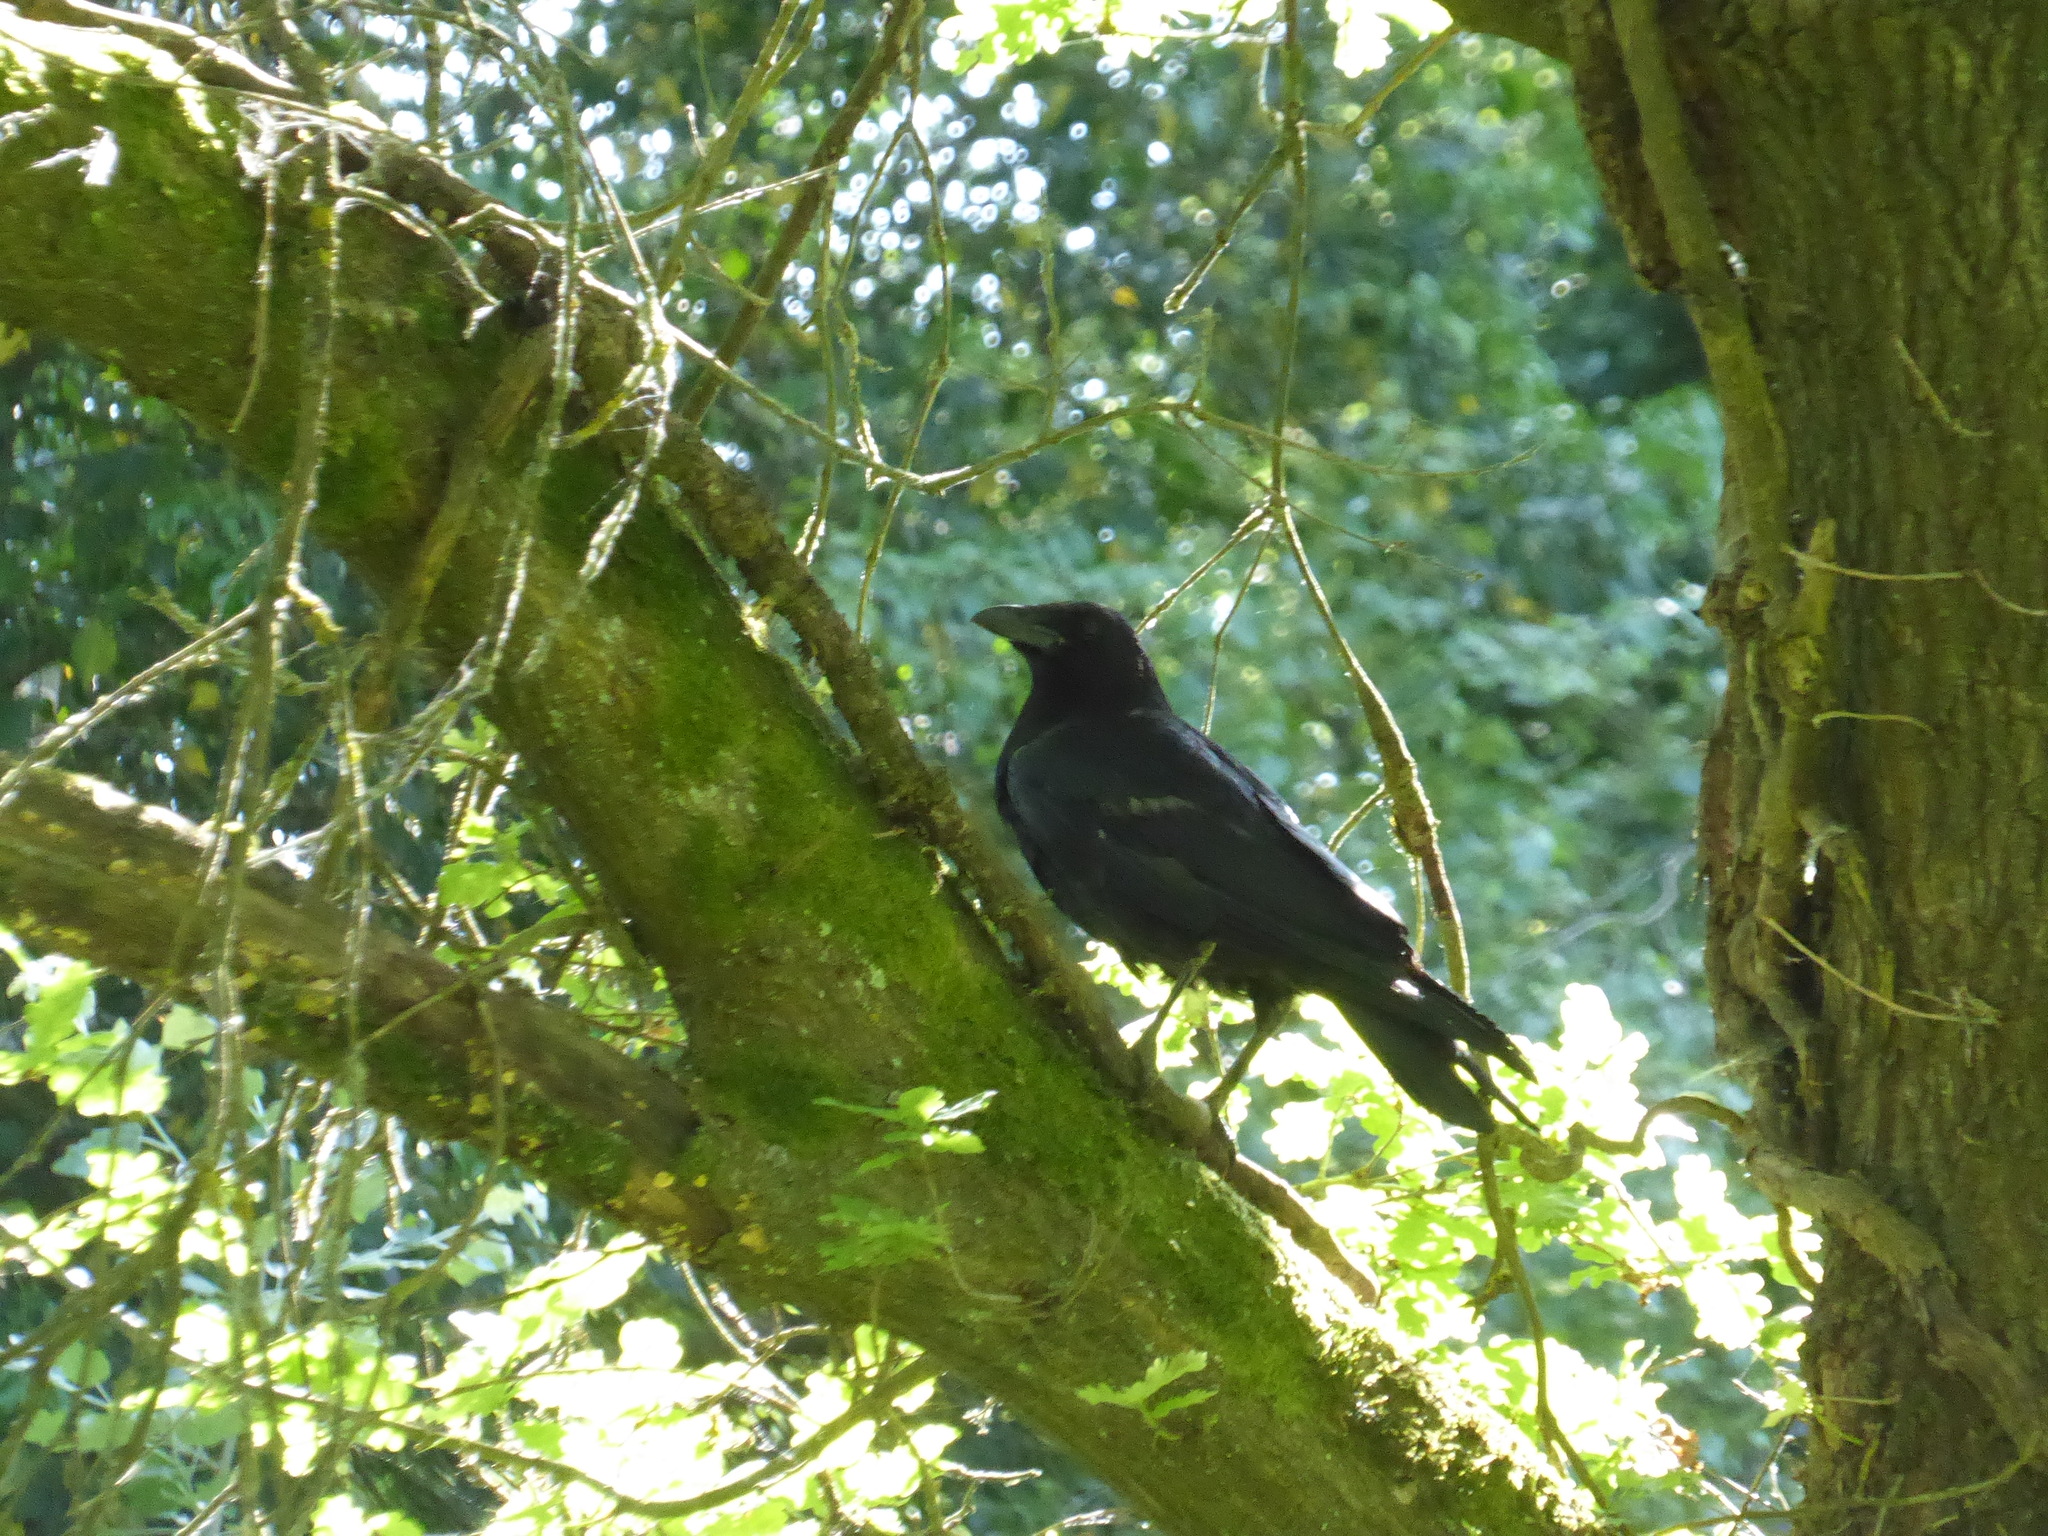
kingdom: Animalia
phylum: Chordata
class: Aves
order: Passeriformes
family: Corvidae
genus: Corvus
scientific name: Corvus corone
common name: Carrion crow
